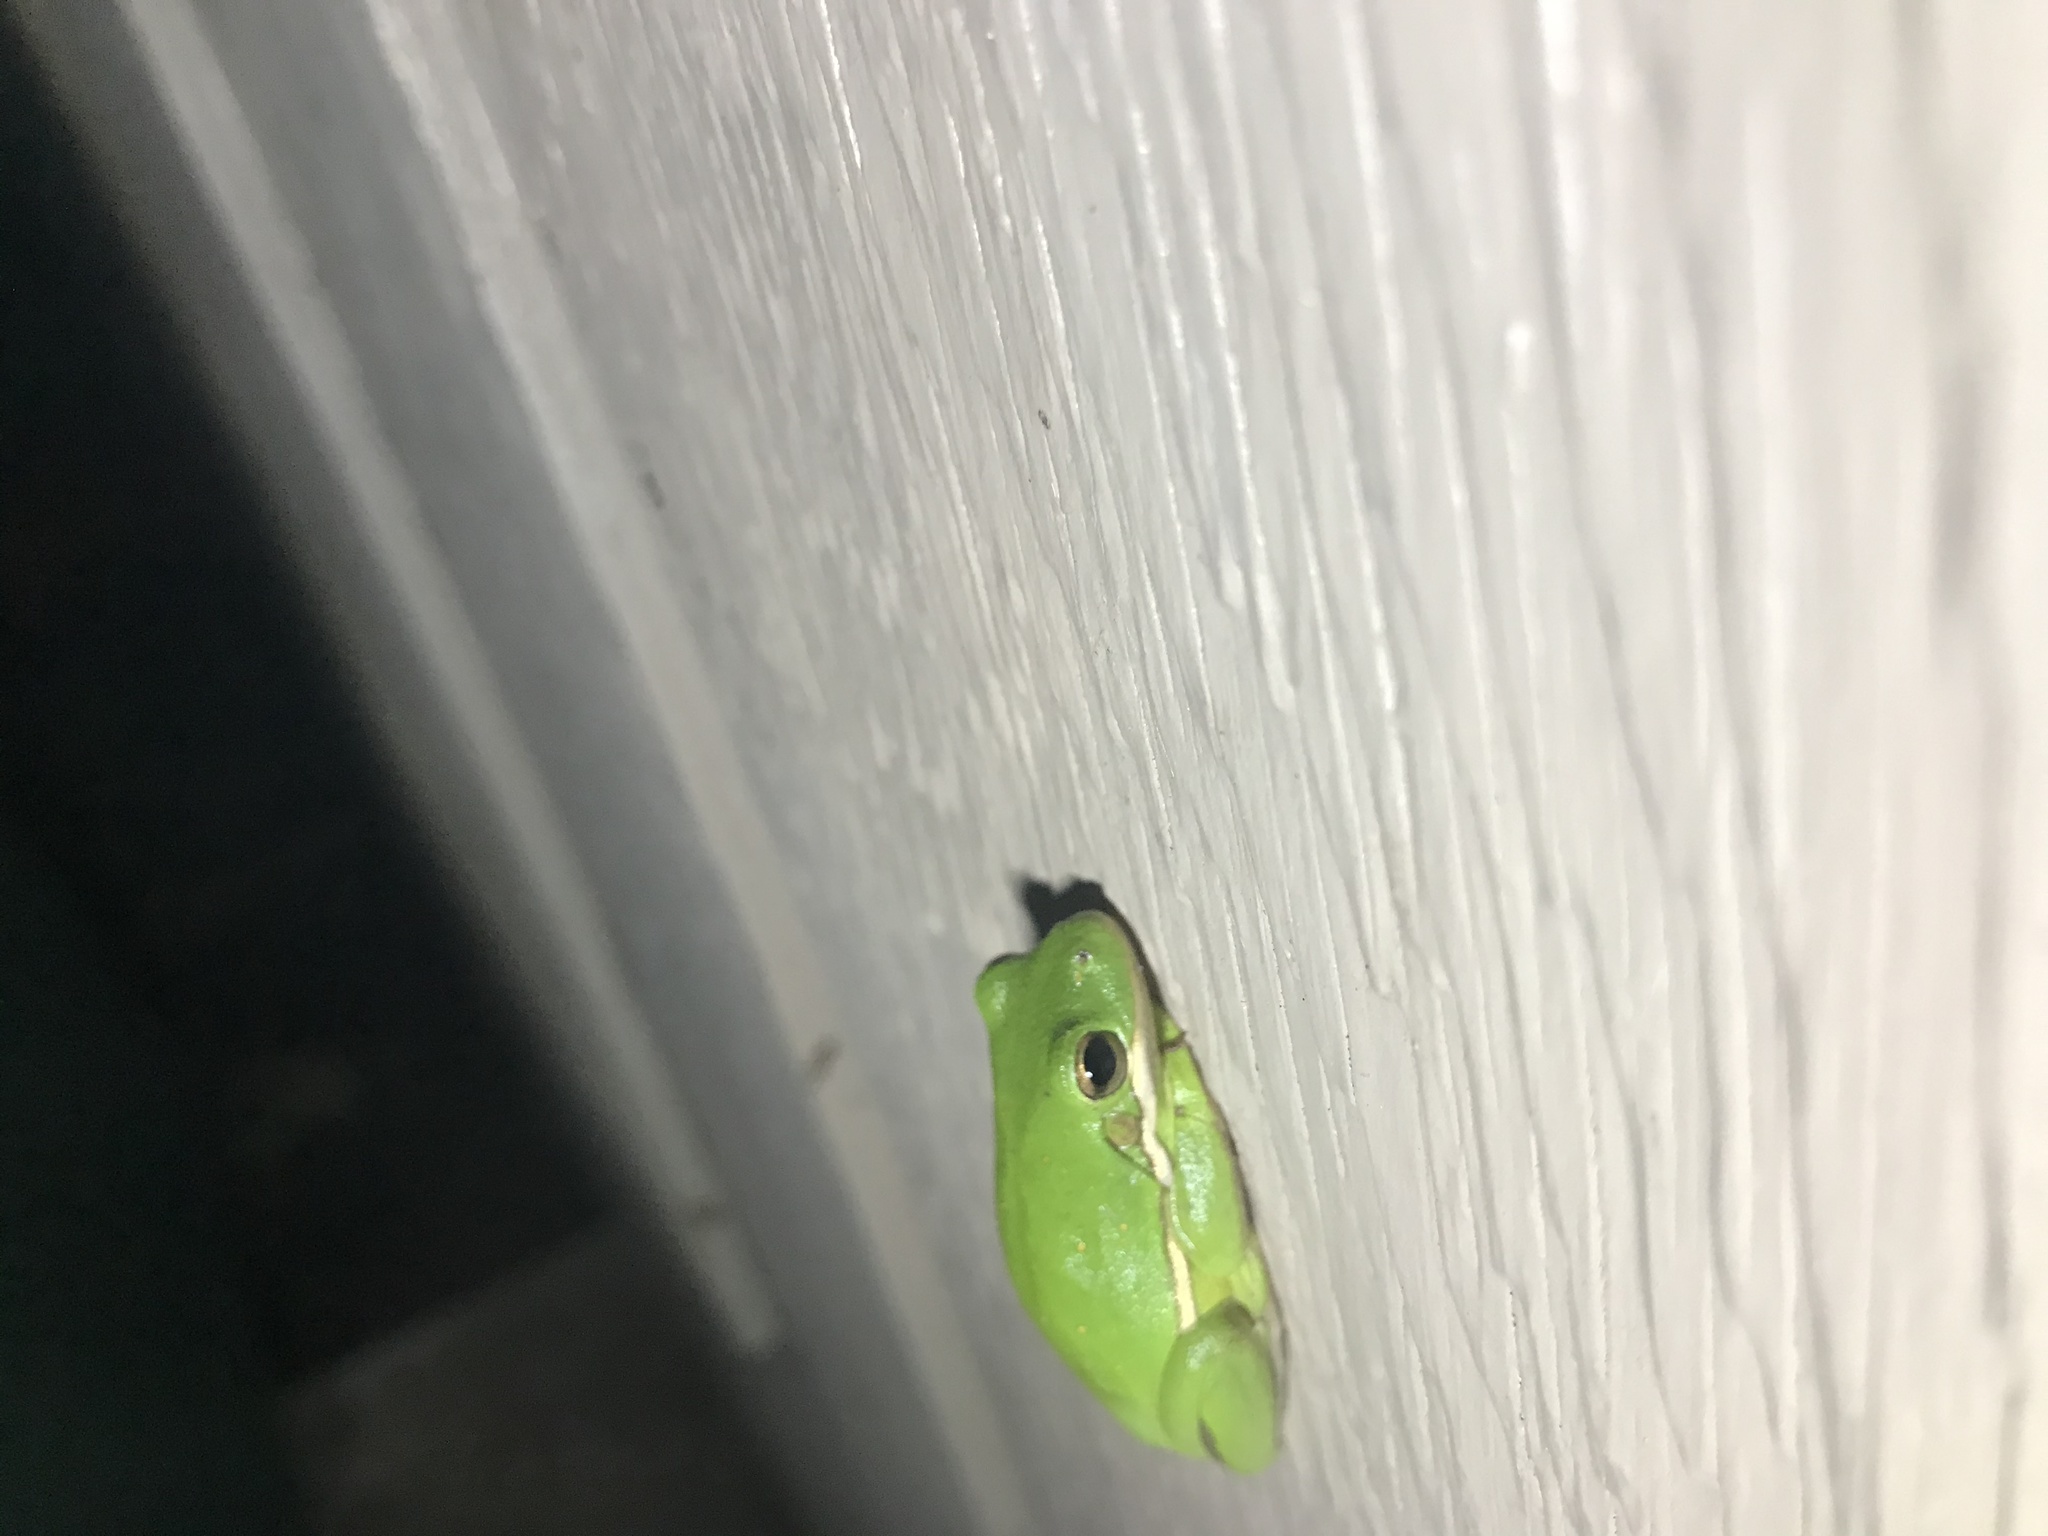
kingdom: Animalia
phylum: Chordata
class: Amphibia
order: Anura
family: Hylidae
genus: Dryophytes
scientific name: Dryophytes cinereus
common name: Green treefrog
